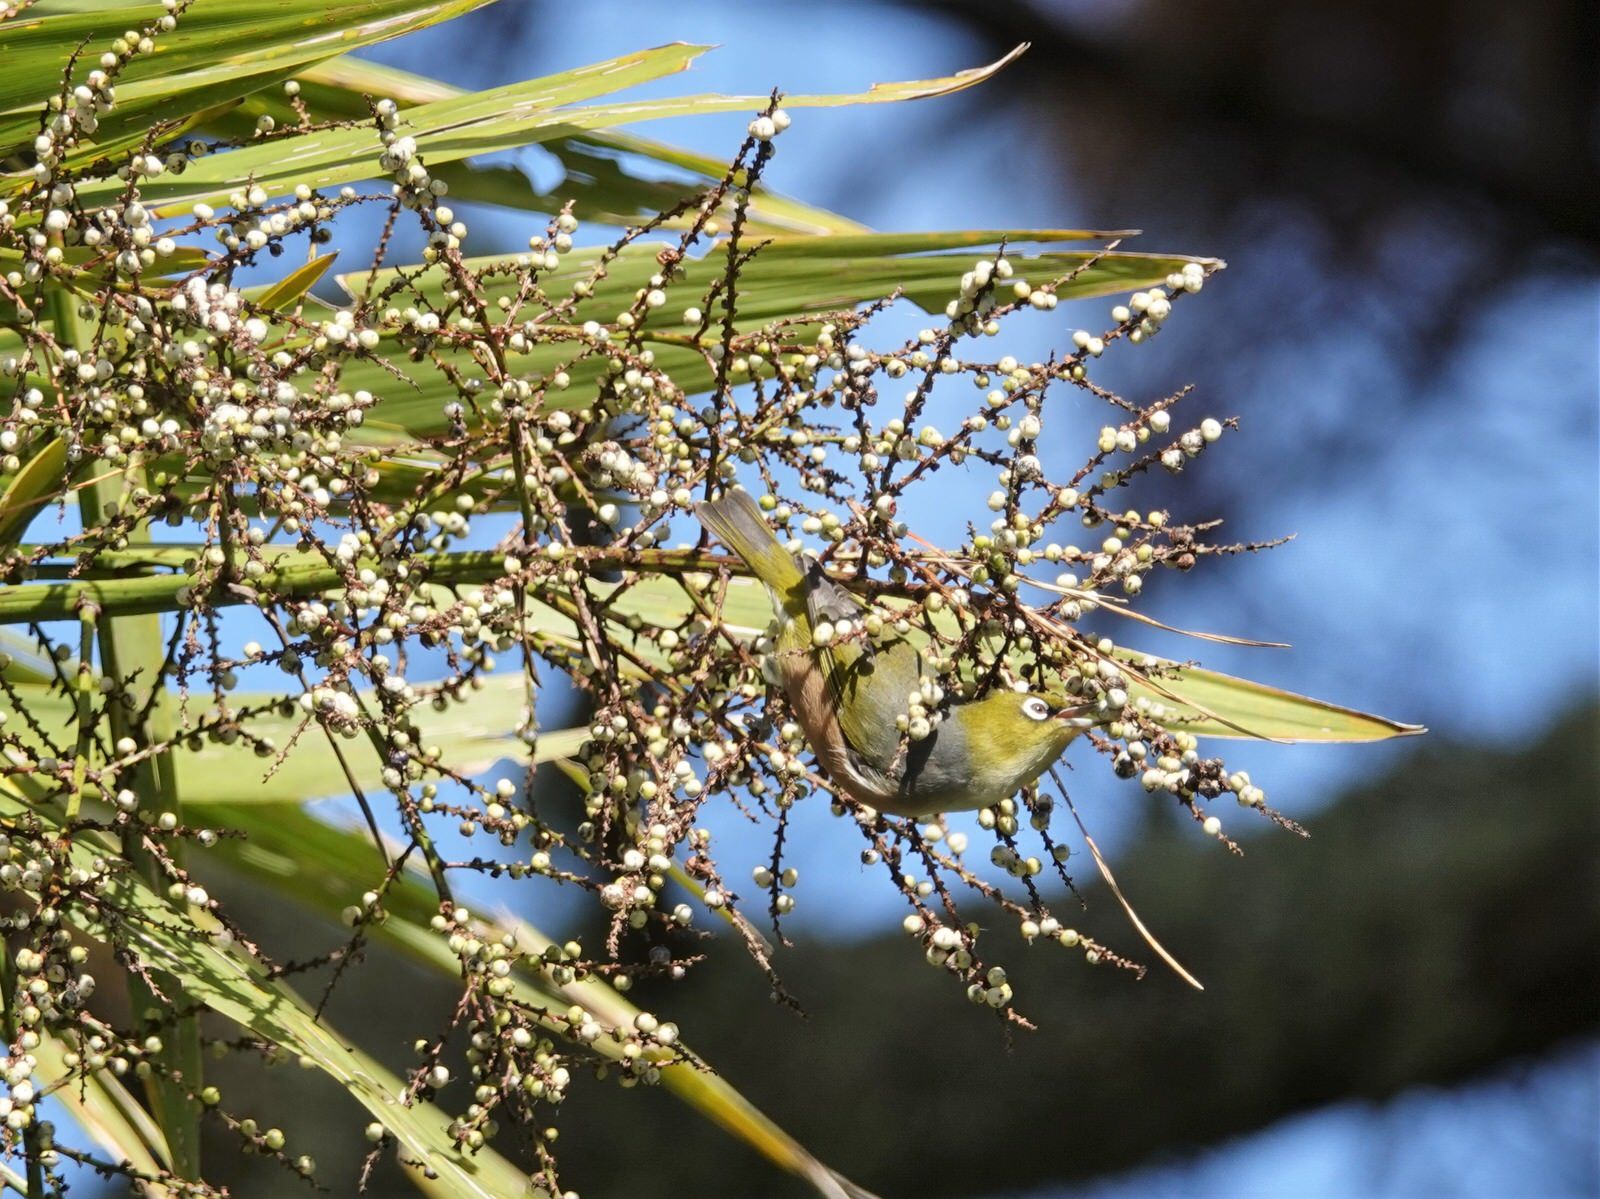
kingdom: Animalia
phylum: Chordata
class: Aves
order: Passeriformes
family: Zosteropidae
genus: Zosterops
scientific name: Zosterops lateralis
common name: Silvereye
